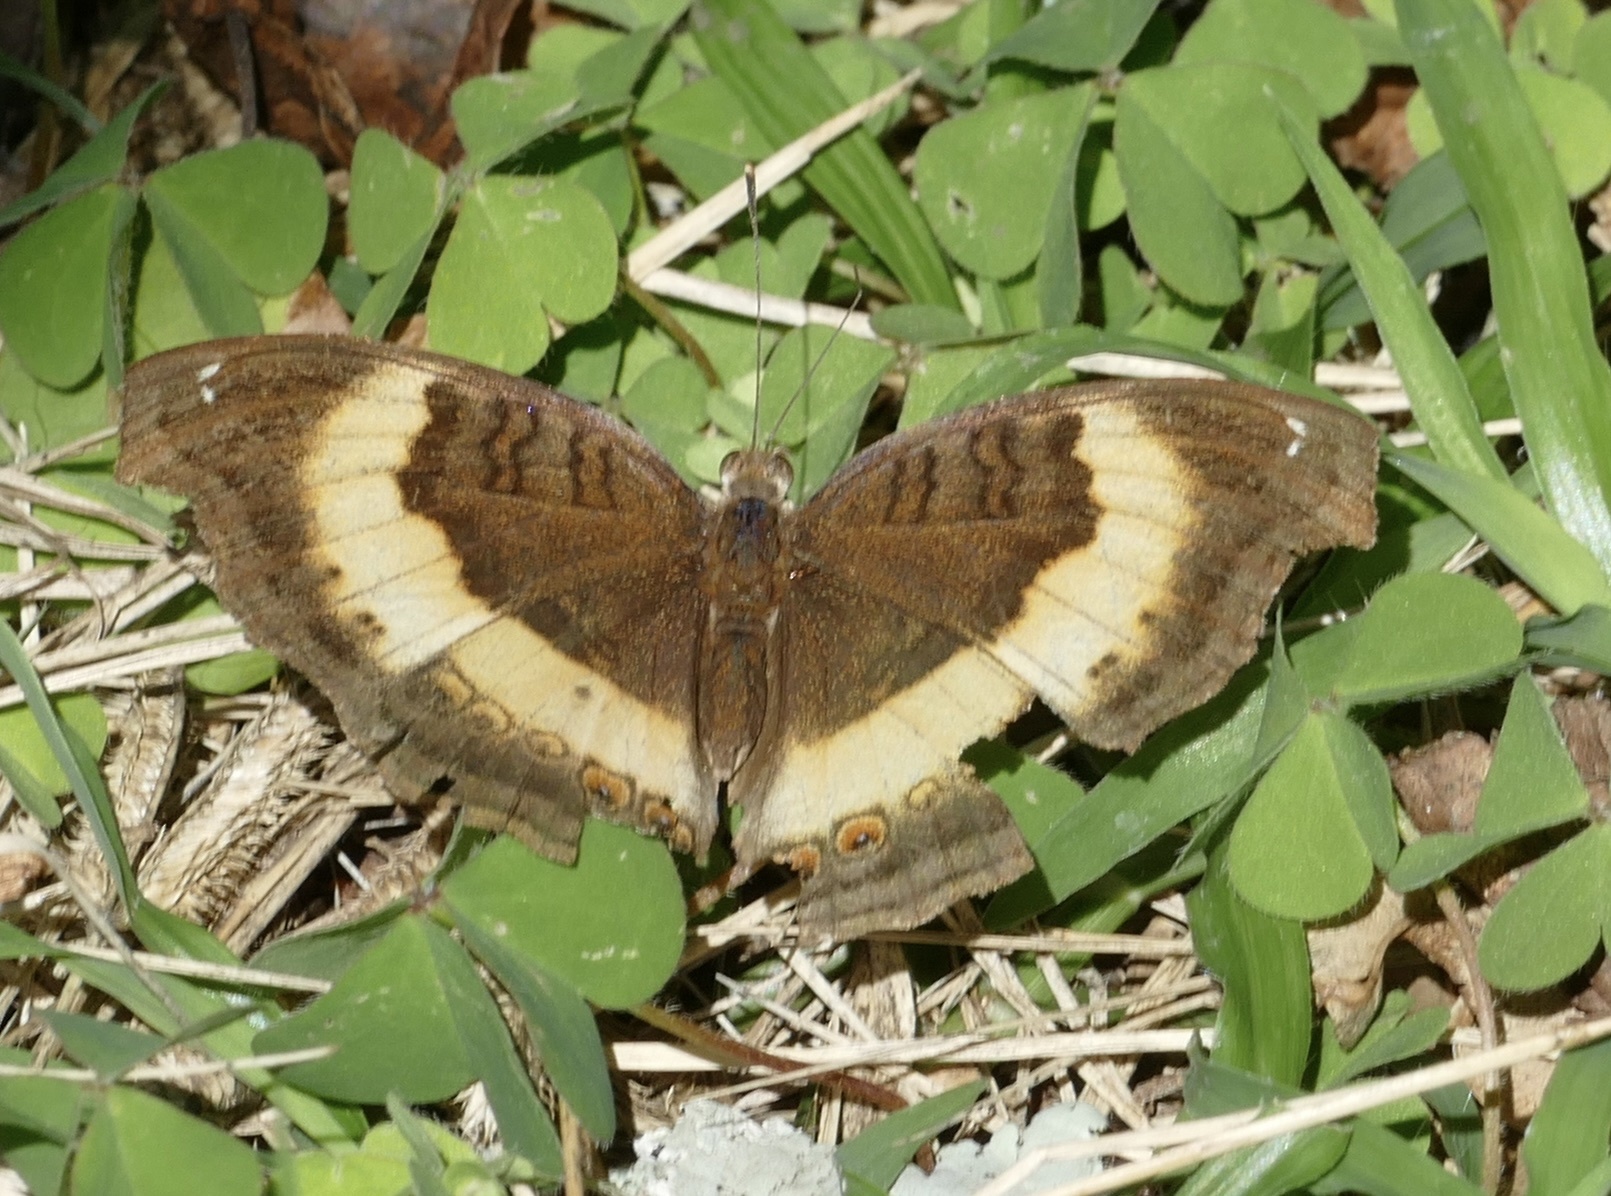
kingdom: Animalia
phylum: Arthropoda
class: Insecta
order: Lepidoptera
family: Nymphalidae
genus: Junonia
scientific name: Junonia terea
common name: Soldier pansy
